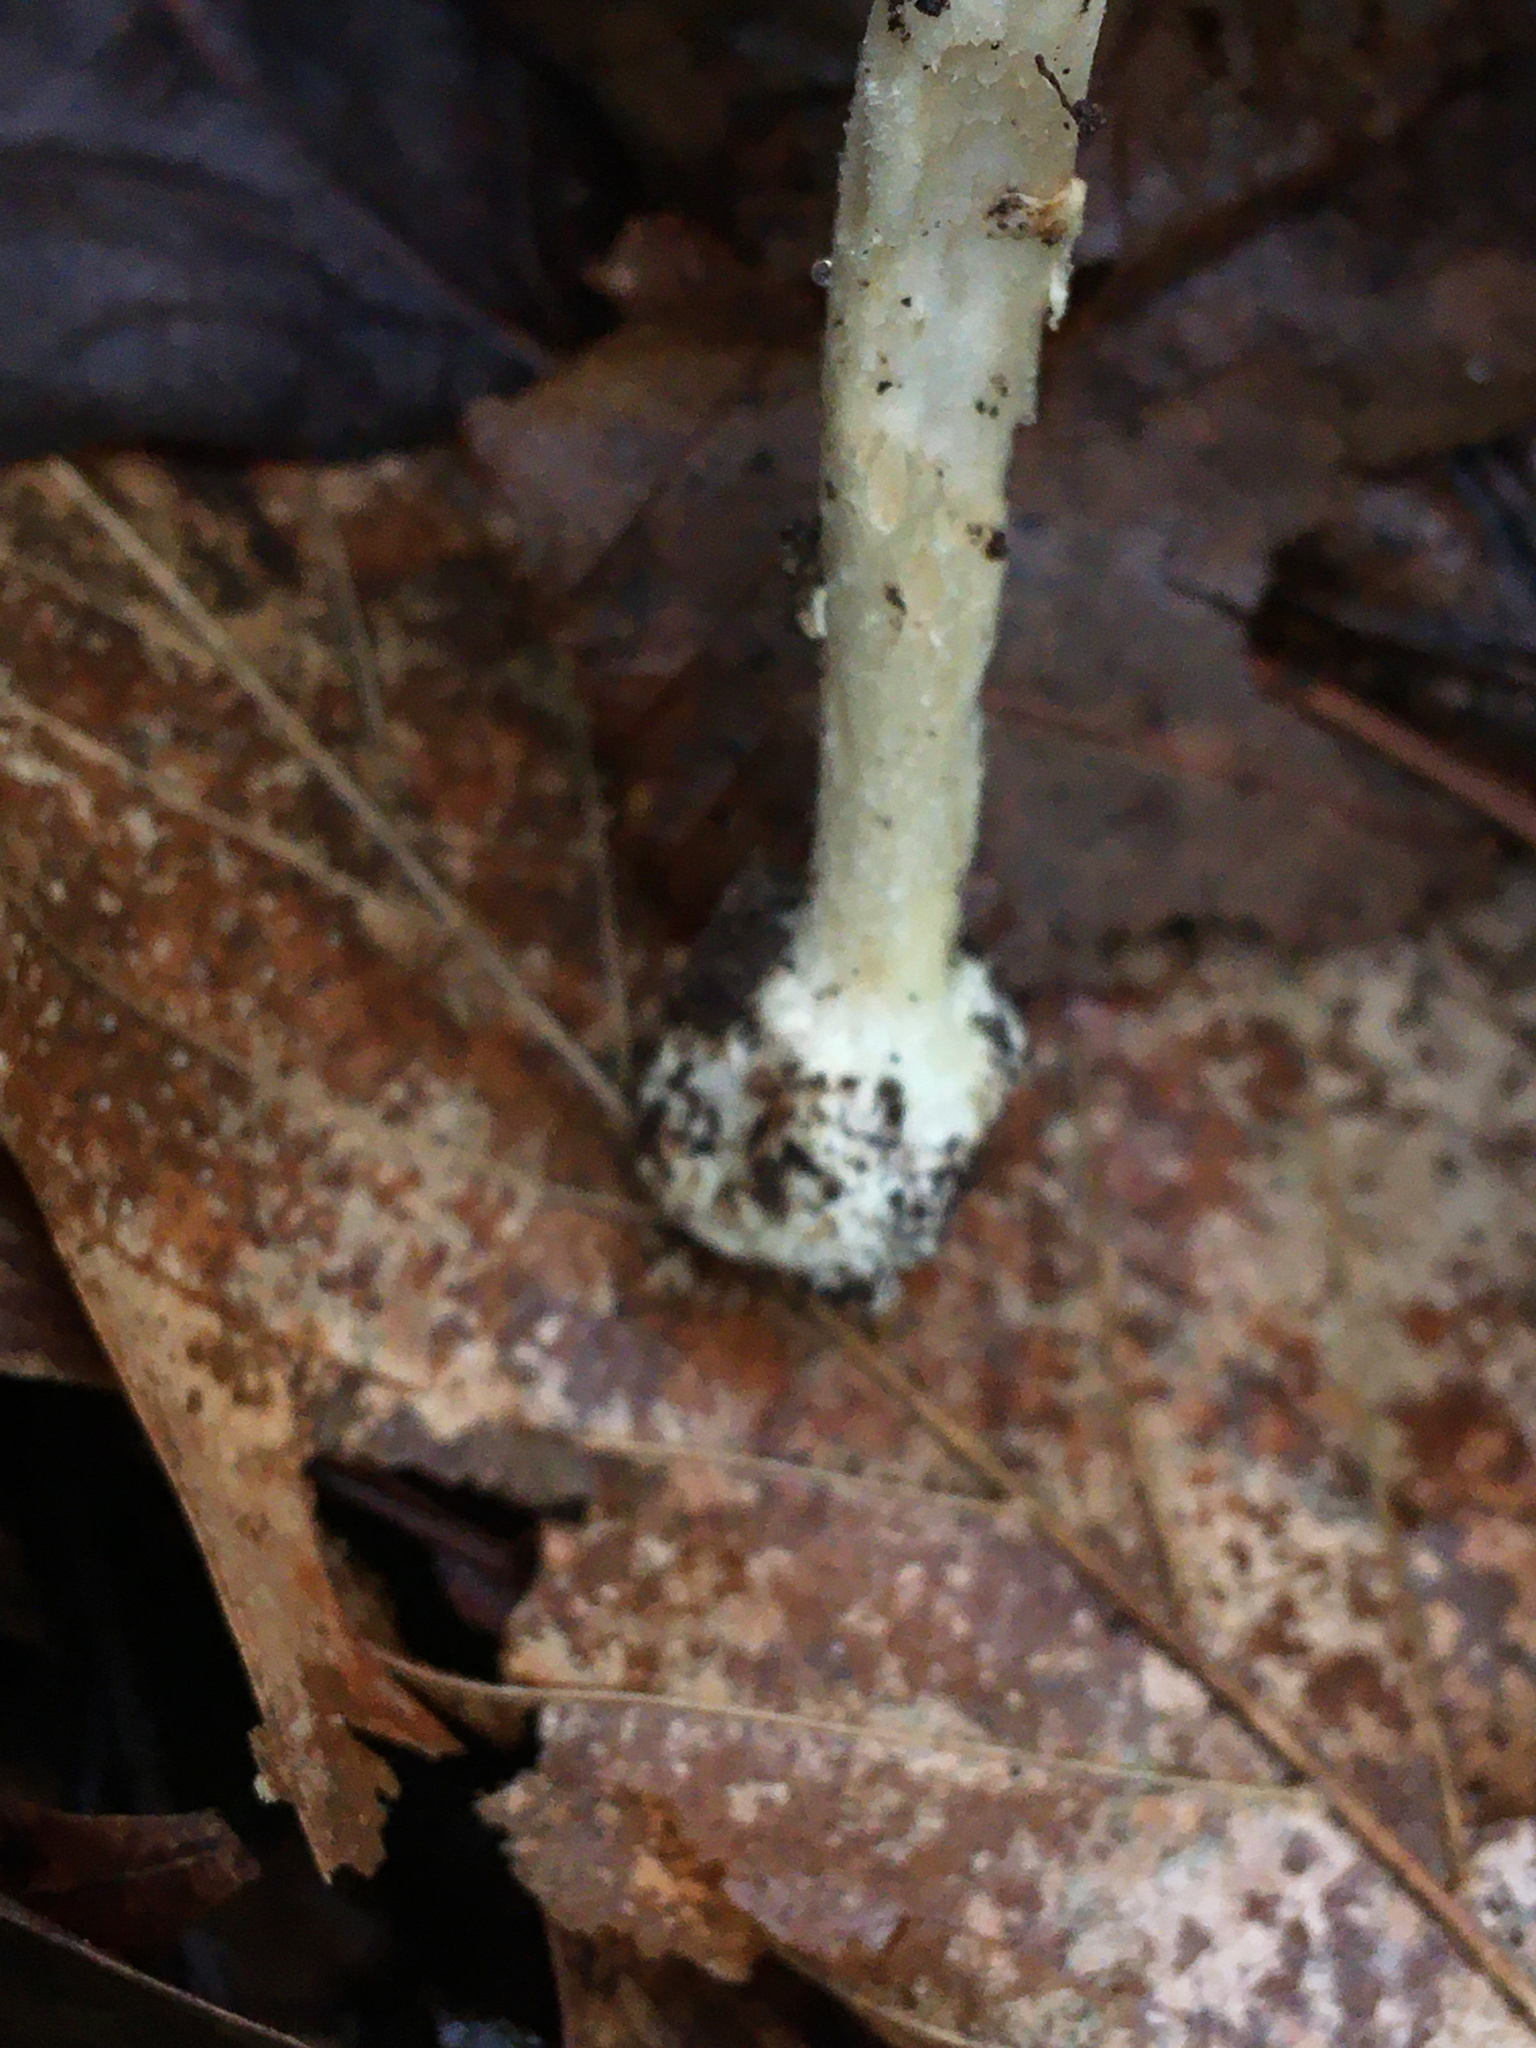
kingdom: Fungi
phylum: Basidiomycota
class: Agaricomycetes
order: Agaricales
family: Amanitaceae
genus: Amanita
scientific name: Amanita russuloides
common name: Russula-like amanita
